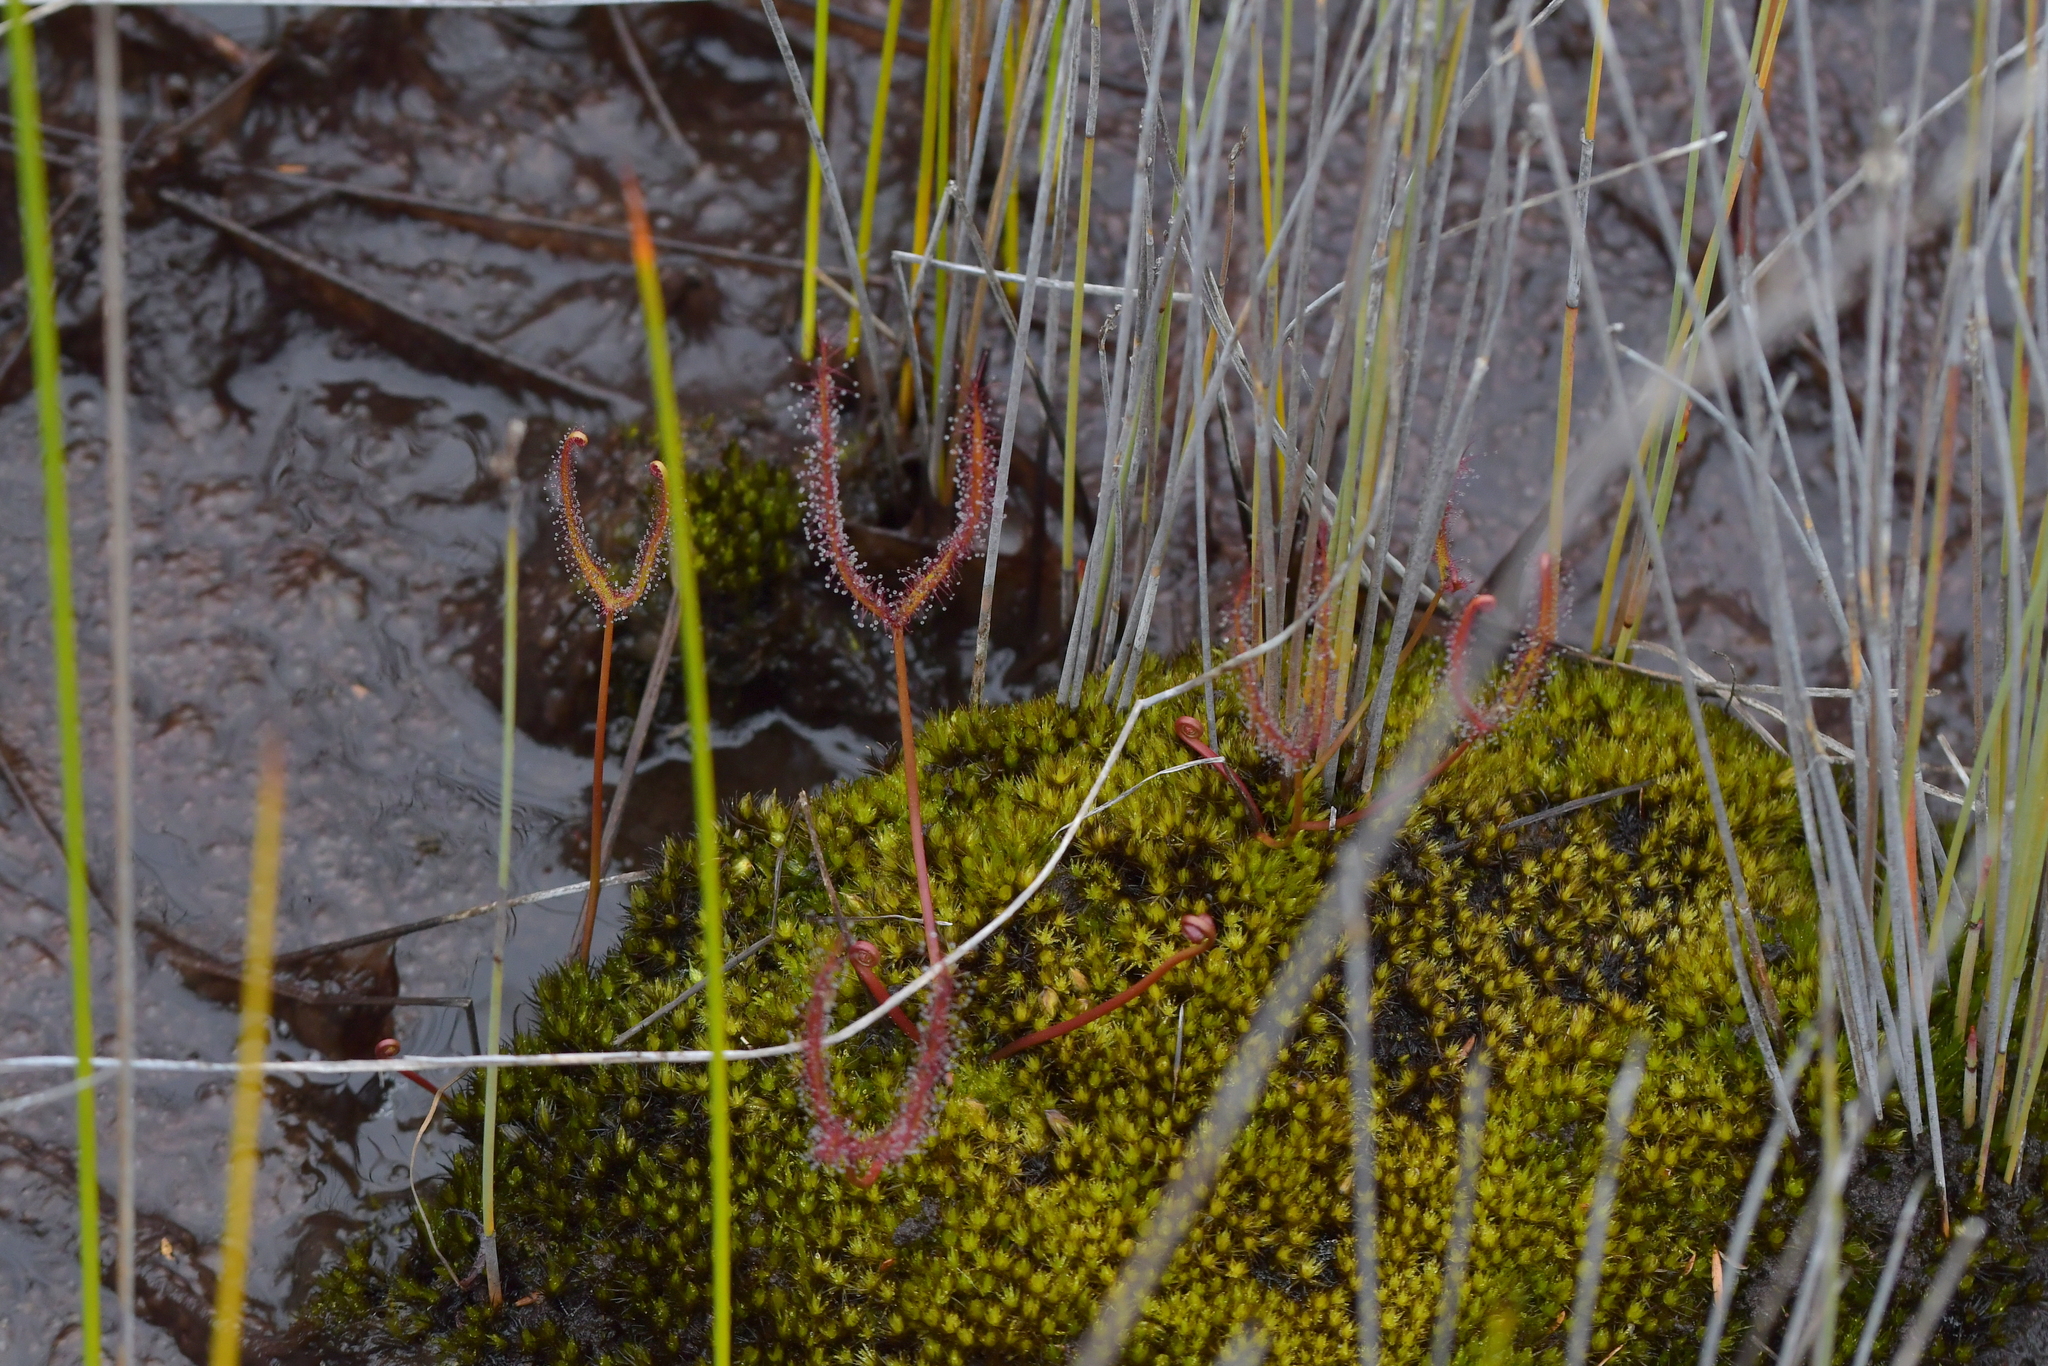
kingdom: Plantae
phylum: Tracheophyta
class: Magnoliopsida
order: Caryophyllales
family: Droseraceae
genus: Drosera
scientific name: Drosera binata
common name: Forked sundew
